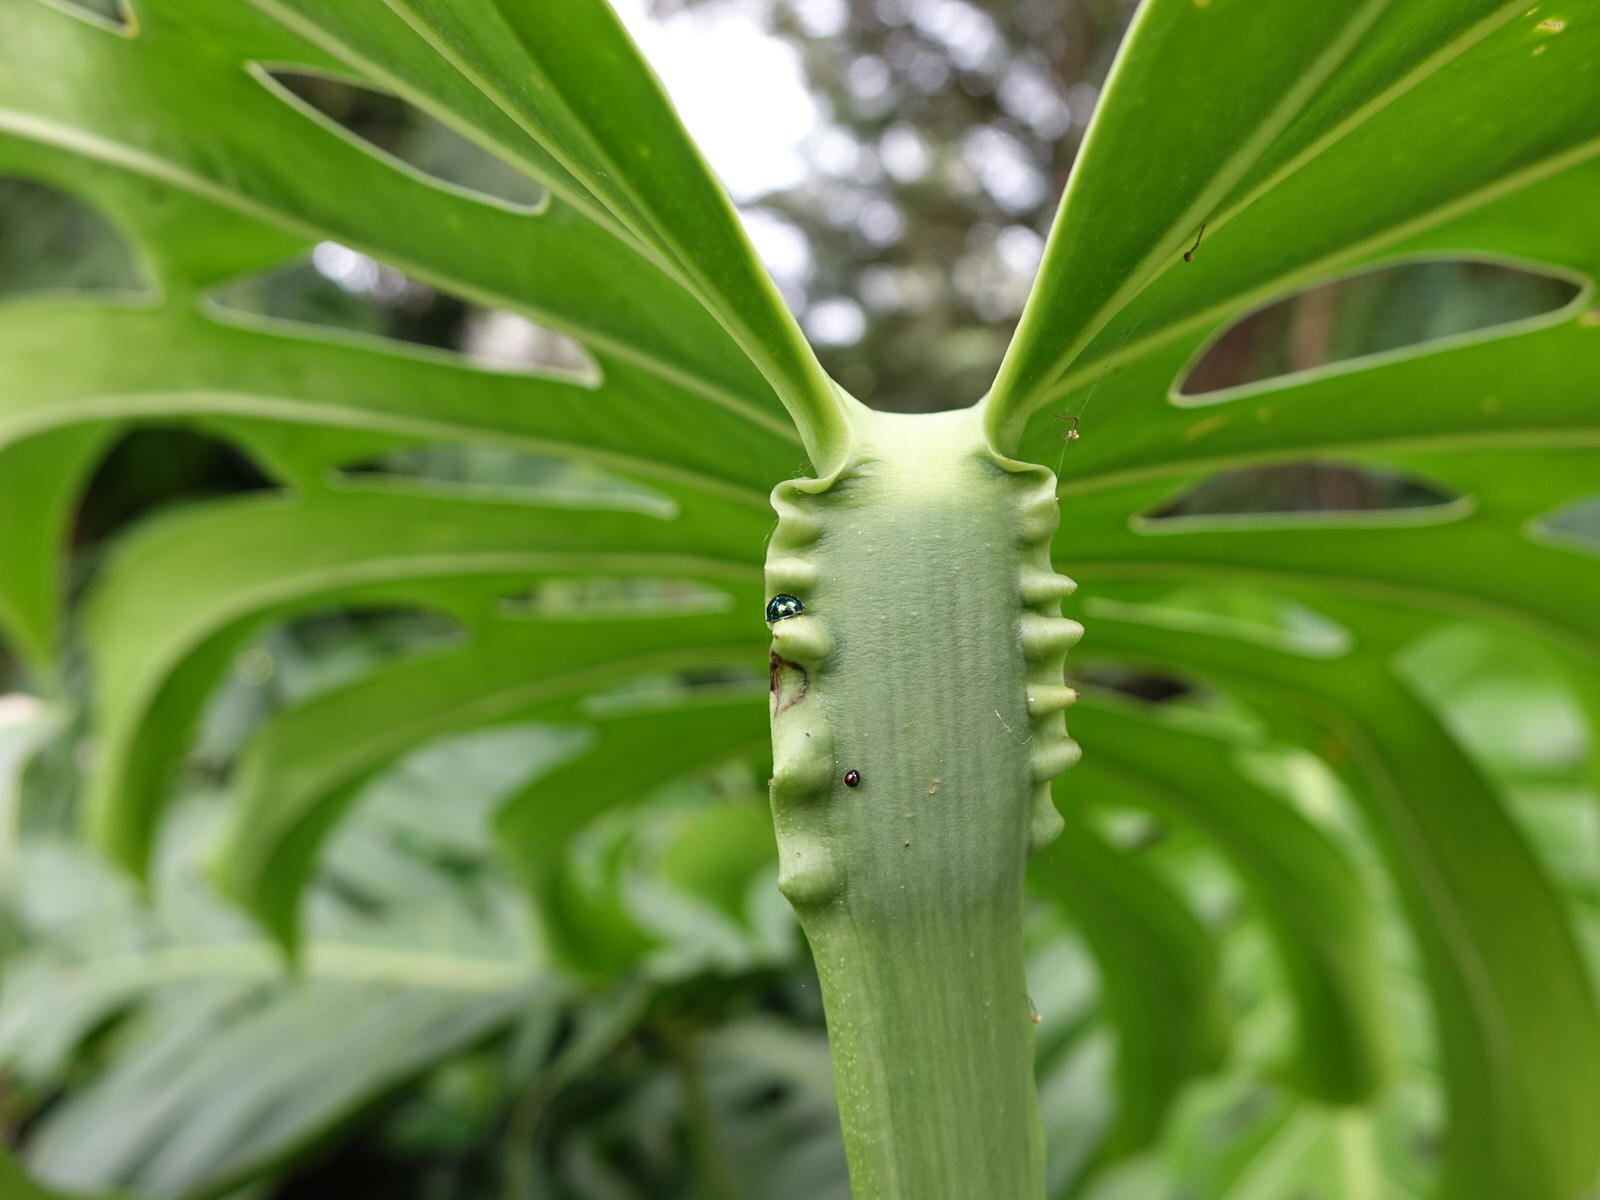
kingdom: Animalia
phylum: Arthropoda
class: Insecta
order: Coleoptera
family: Coccinellidae
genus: Serangium
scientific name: Serangium maculigerum
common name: Lady beetle
